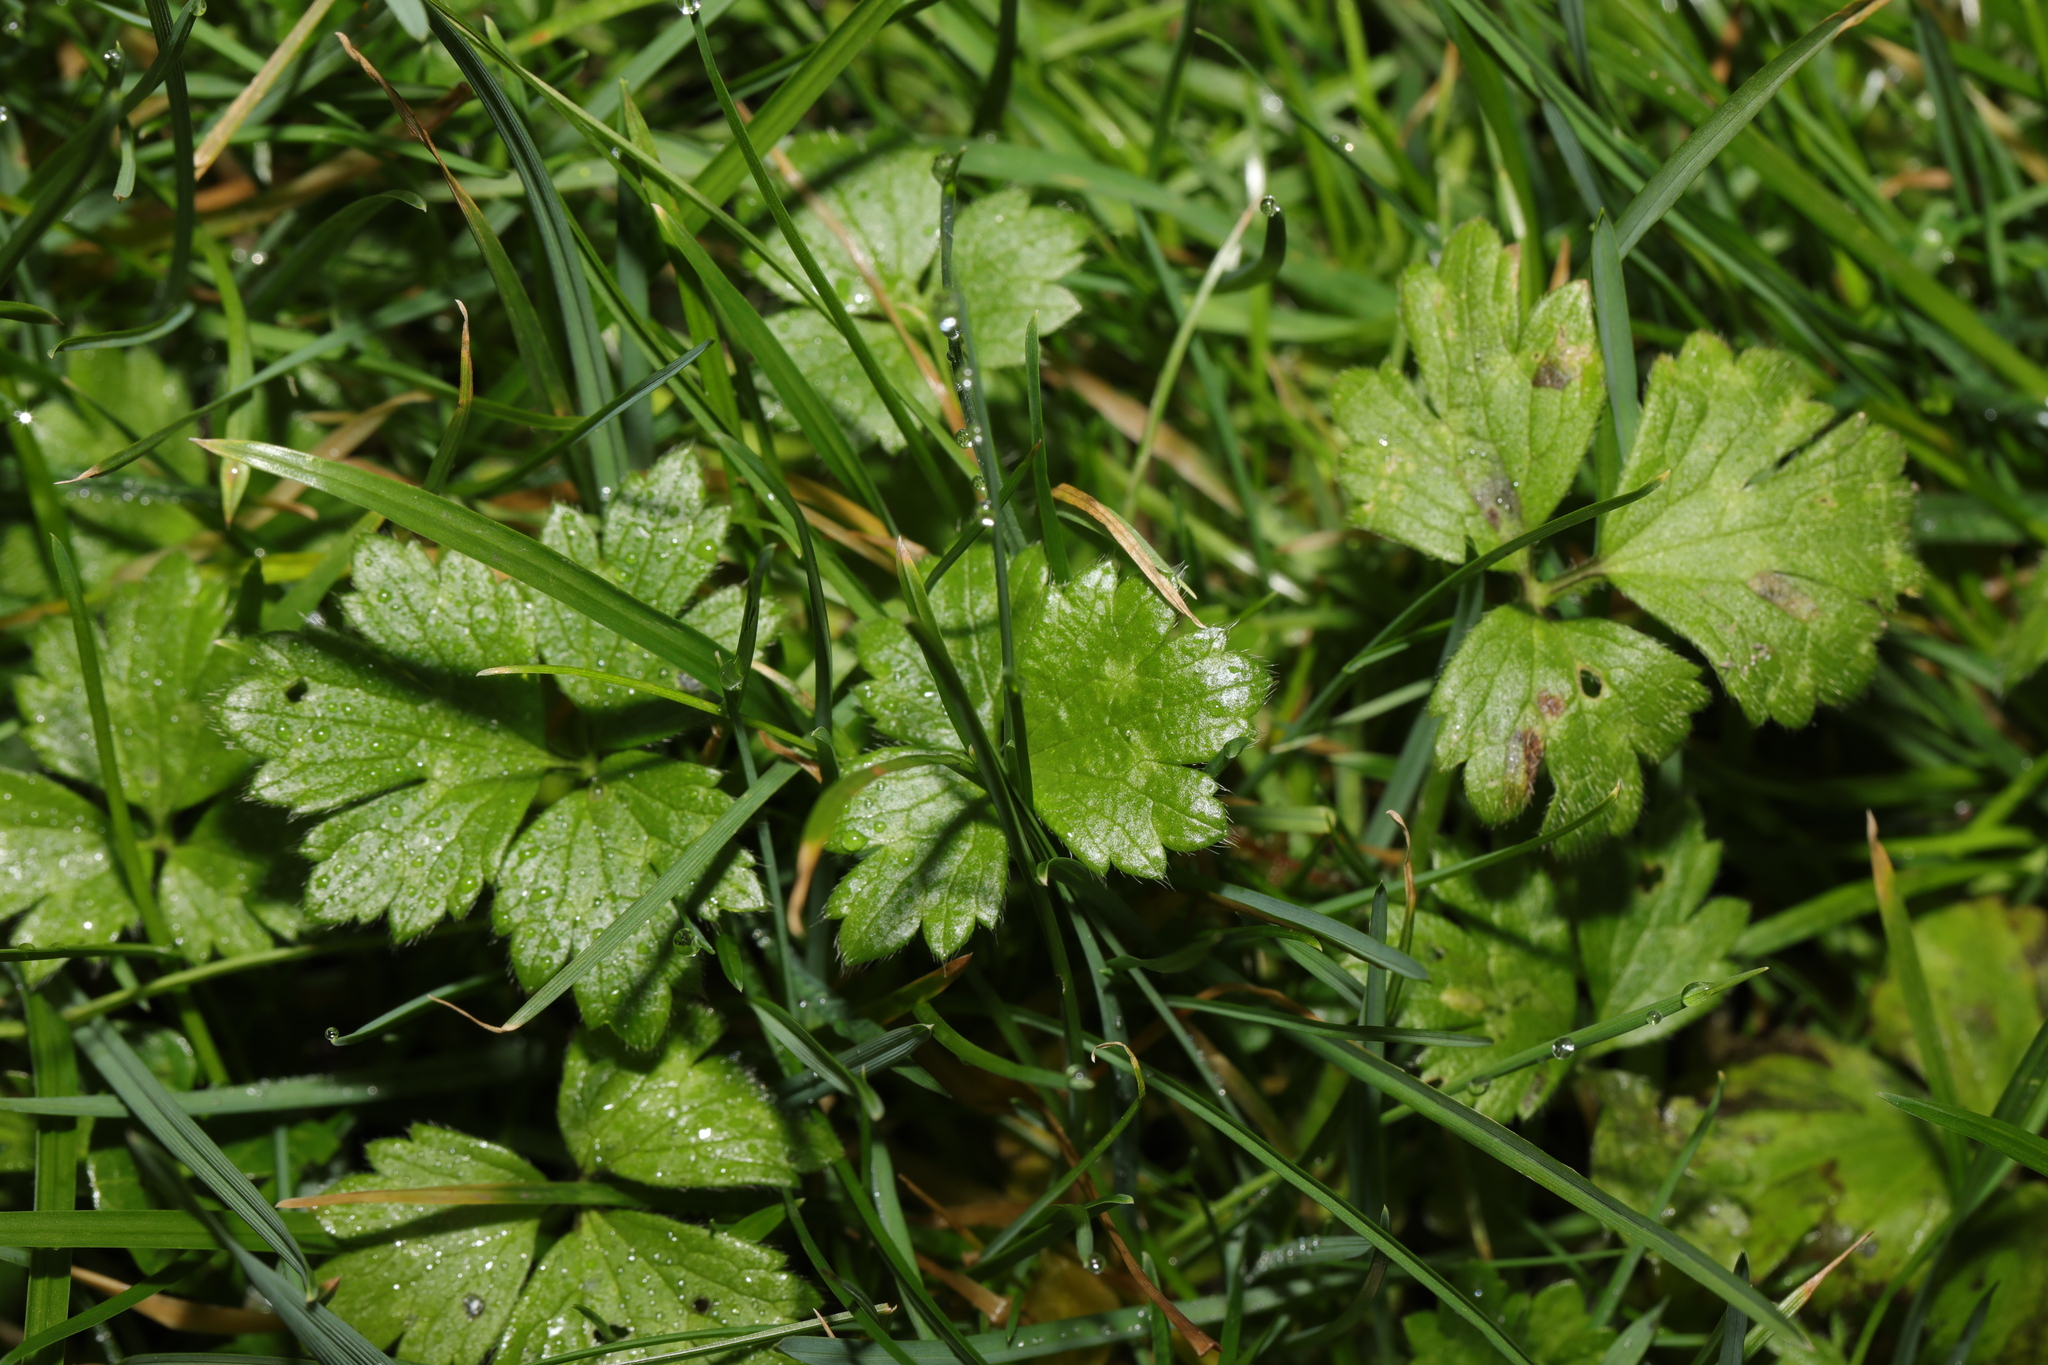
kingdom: Plantae
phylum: Tracheophyta
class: Magnoliopsida
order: Ranunculales
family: Ranunculaceae
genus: Ranunculus
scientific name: Ranunculus repens
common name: Creeping buttercup
